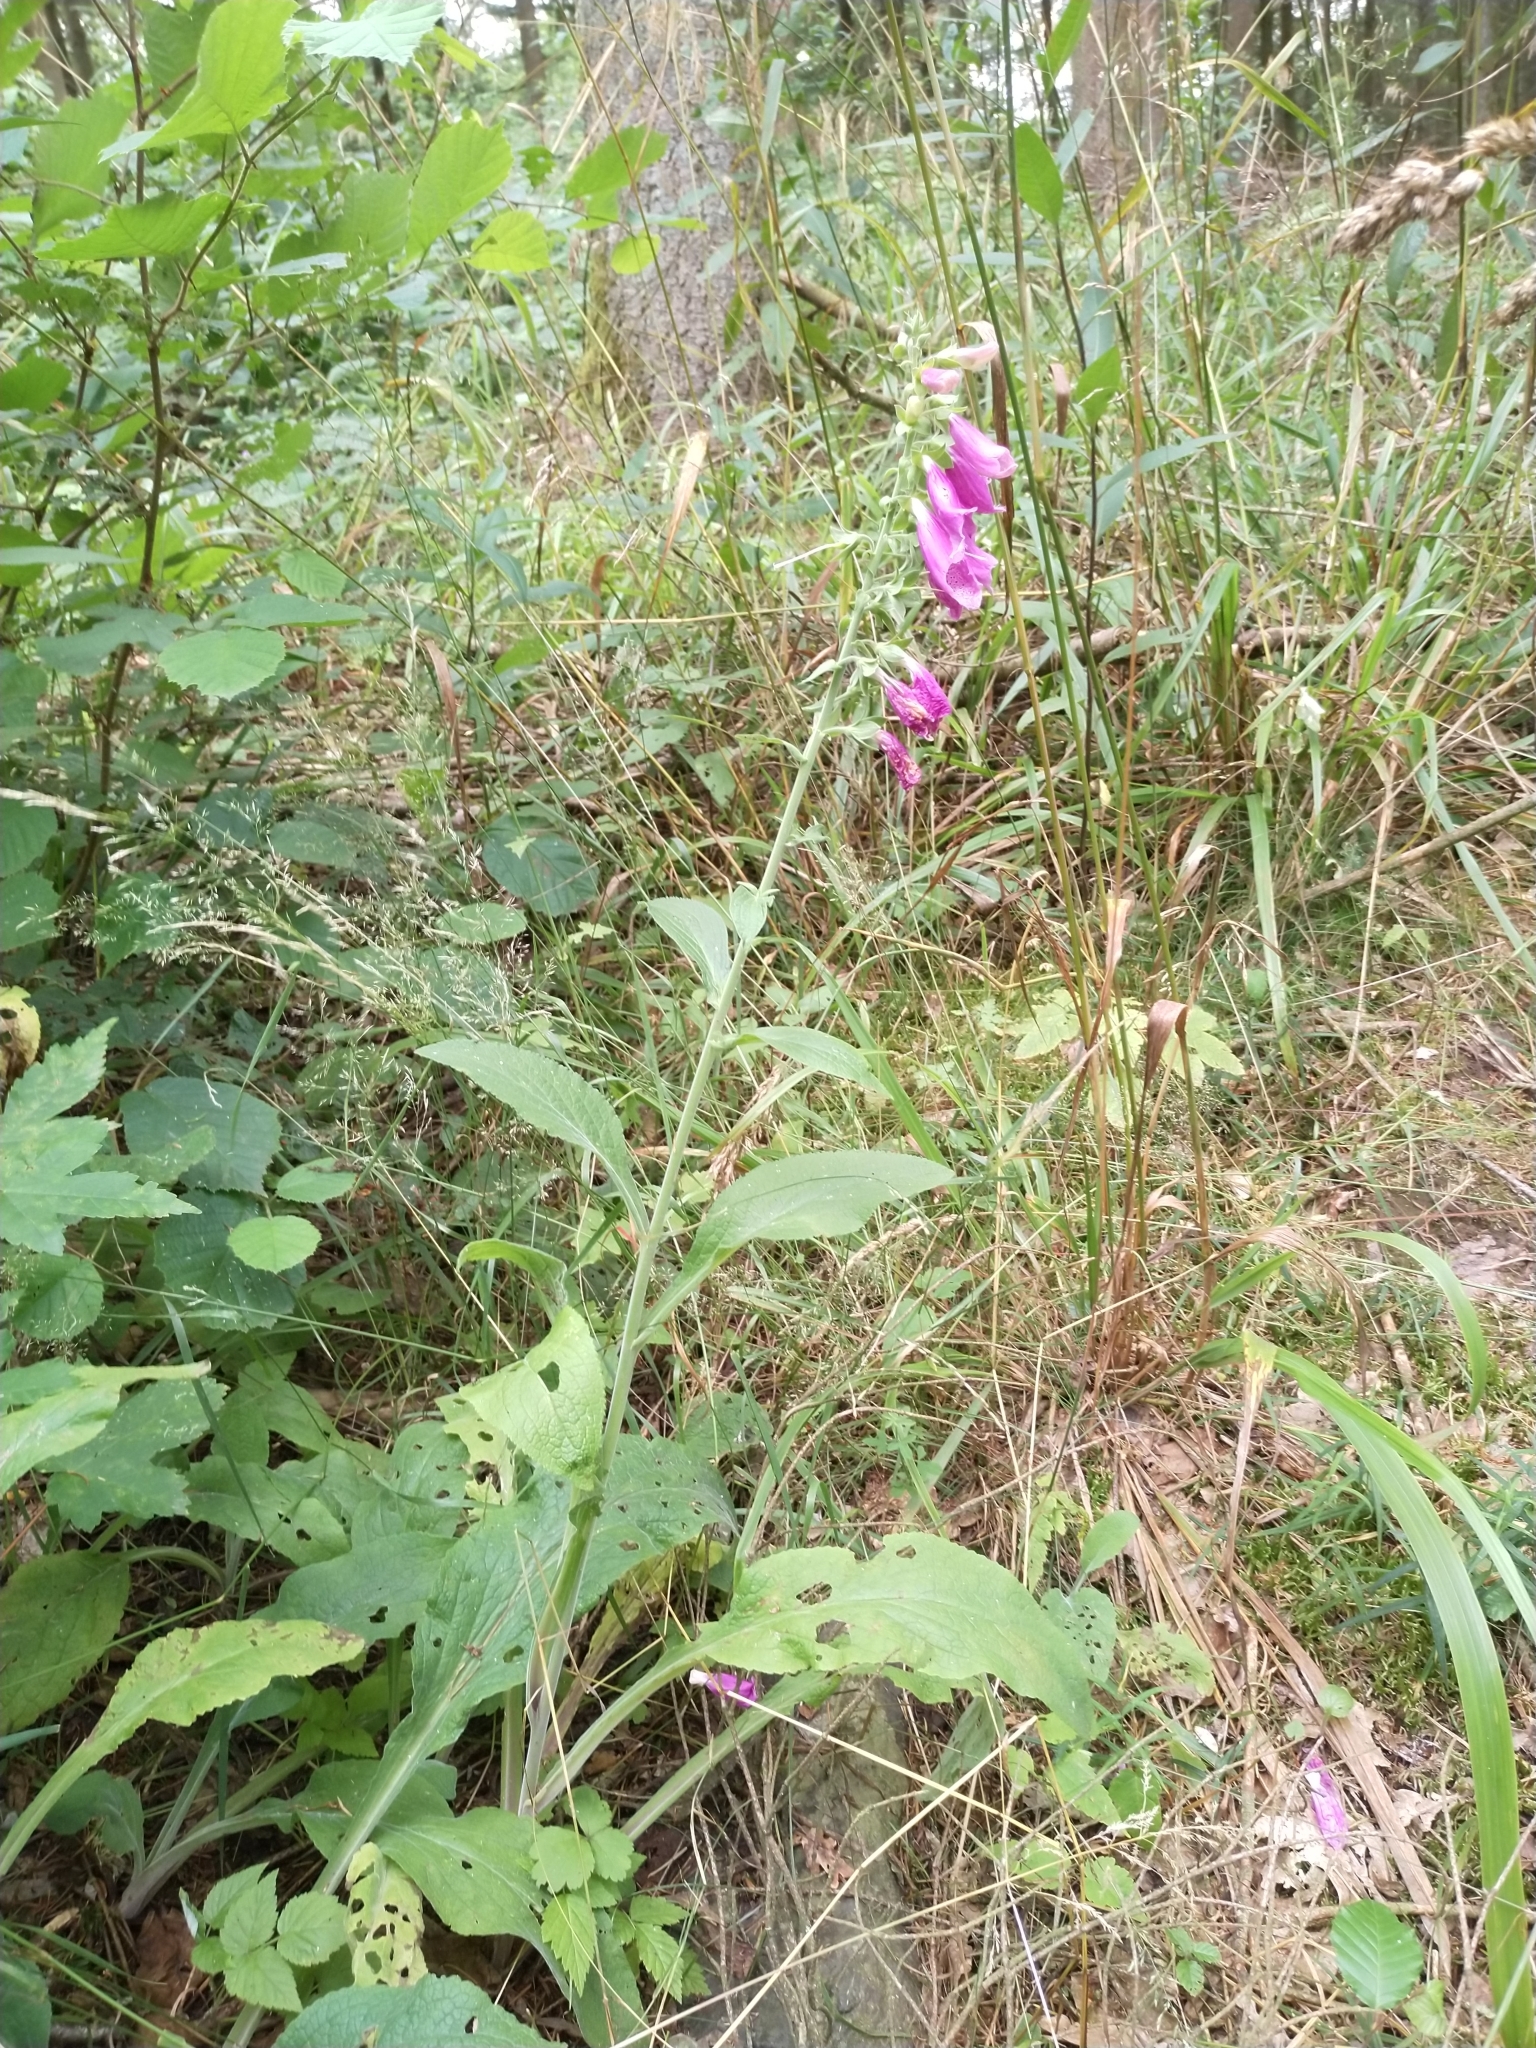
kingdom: Plantae
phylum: Tracheophyta
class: Magnoliopsida
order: Lamiales
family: Plantaginaceae
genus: Digitalis
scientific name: Digitalis purpurea
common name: Foxglove
